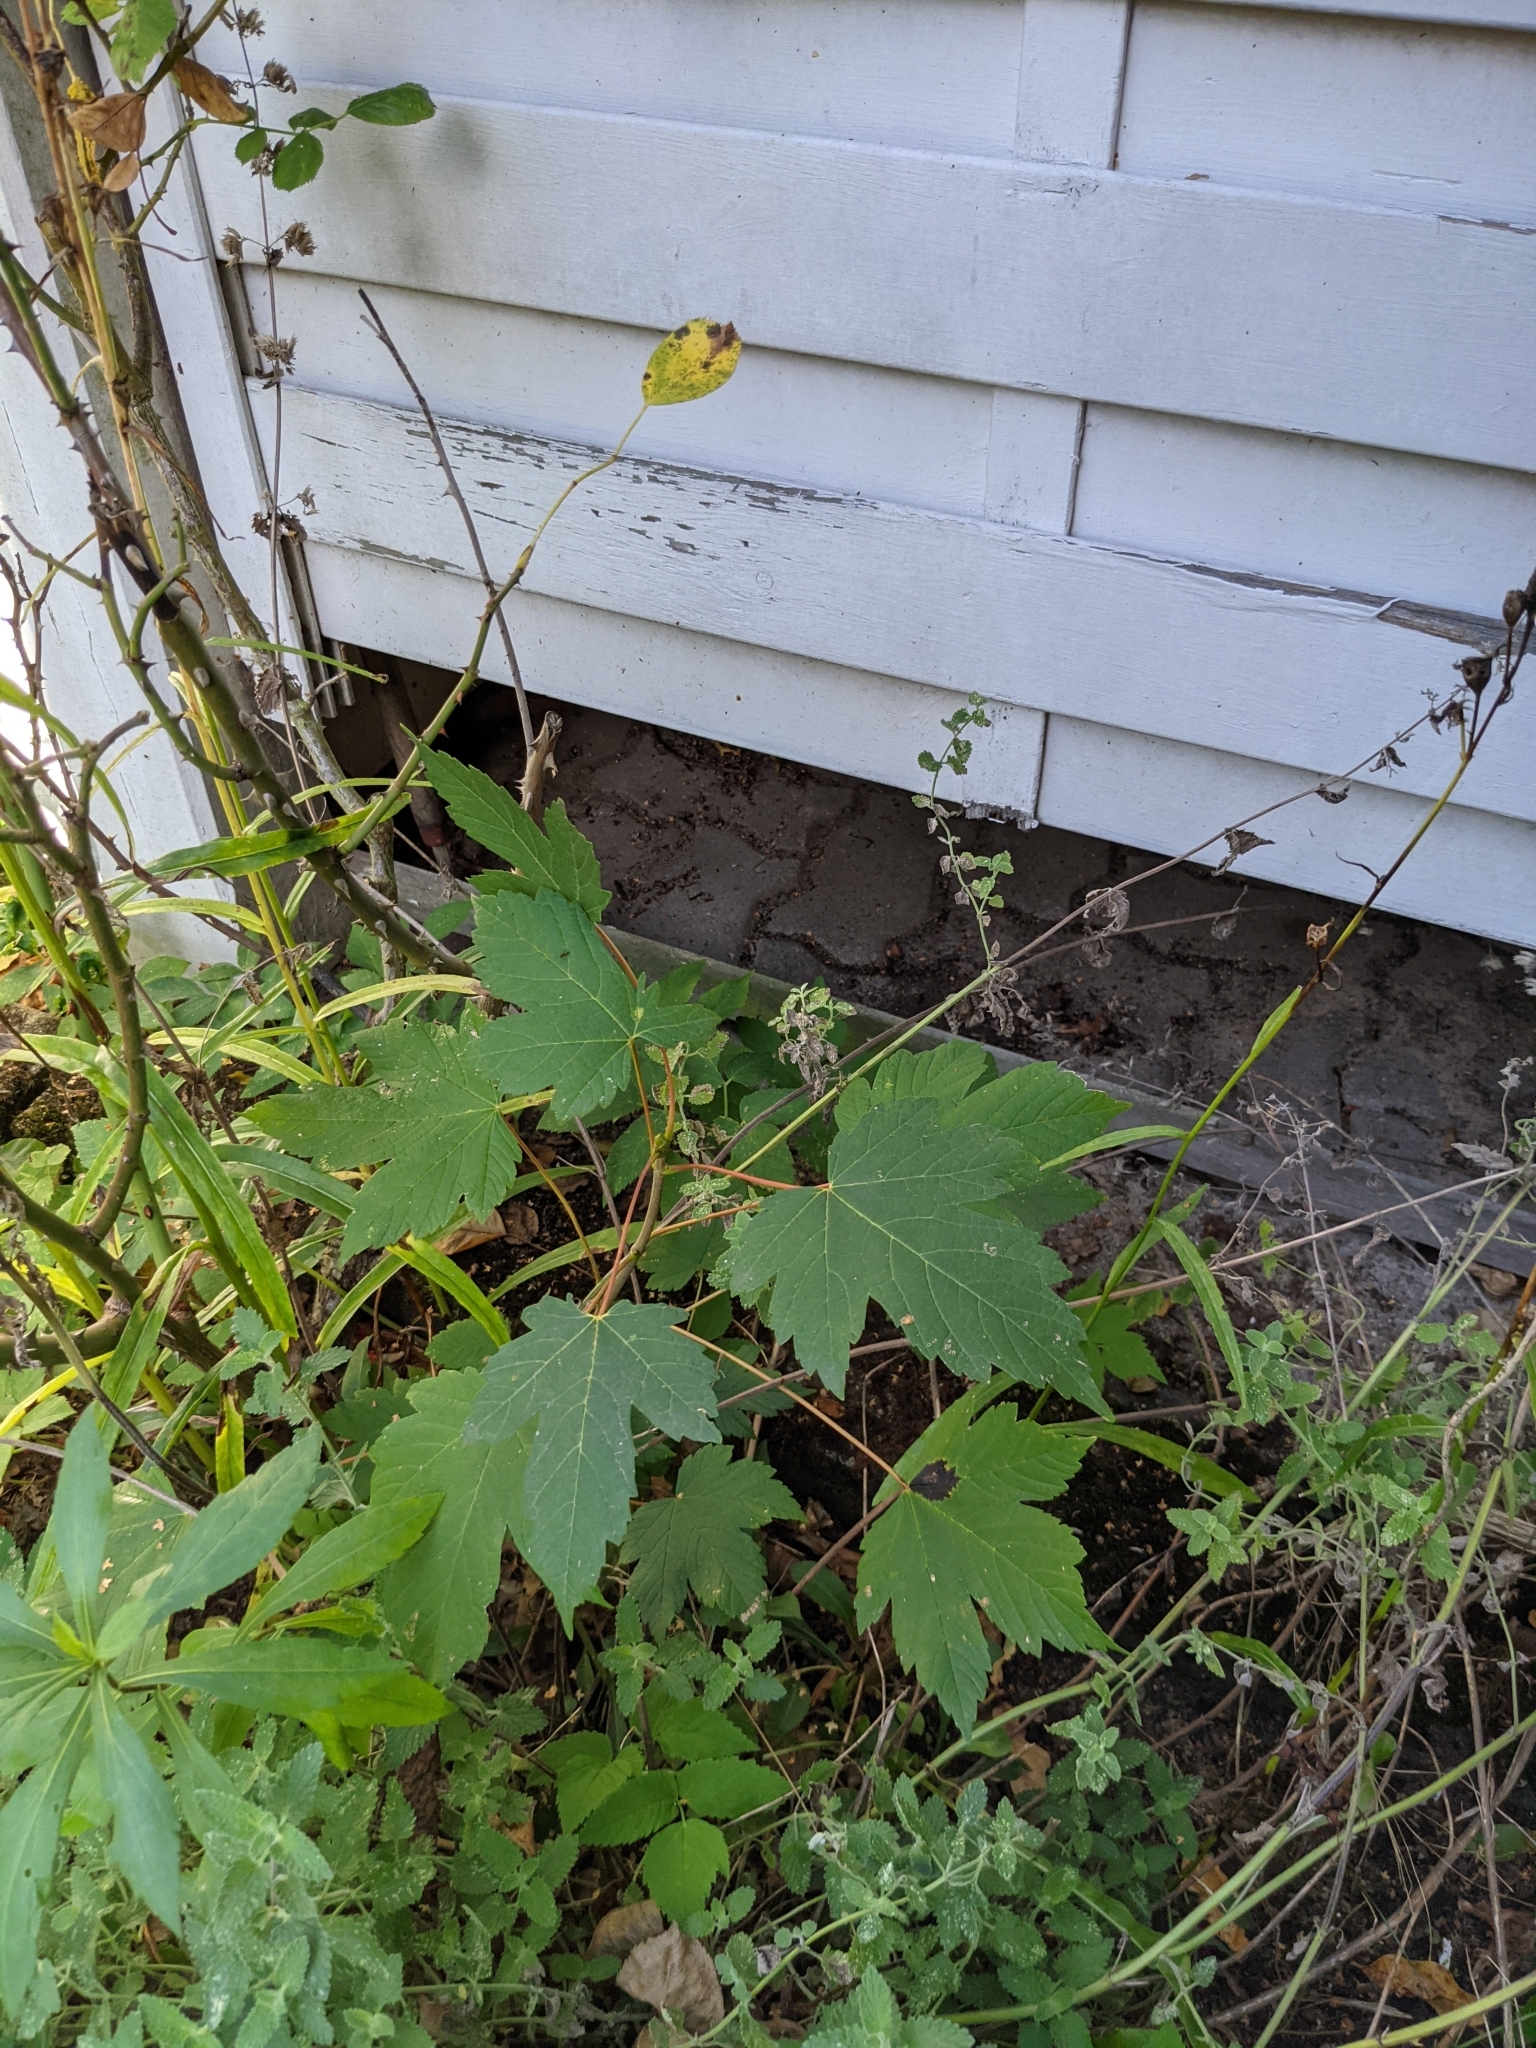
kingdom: Plantae
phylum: Tracheophyta
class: Magnoliopsida
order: Sapindales
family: Sapindaceae
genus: Acer
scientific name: Acer pseudoplatanus
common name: Sycamore
